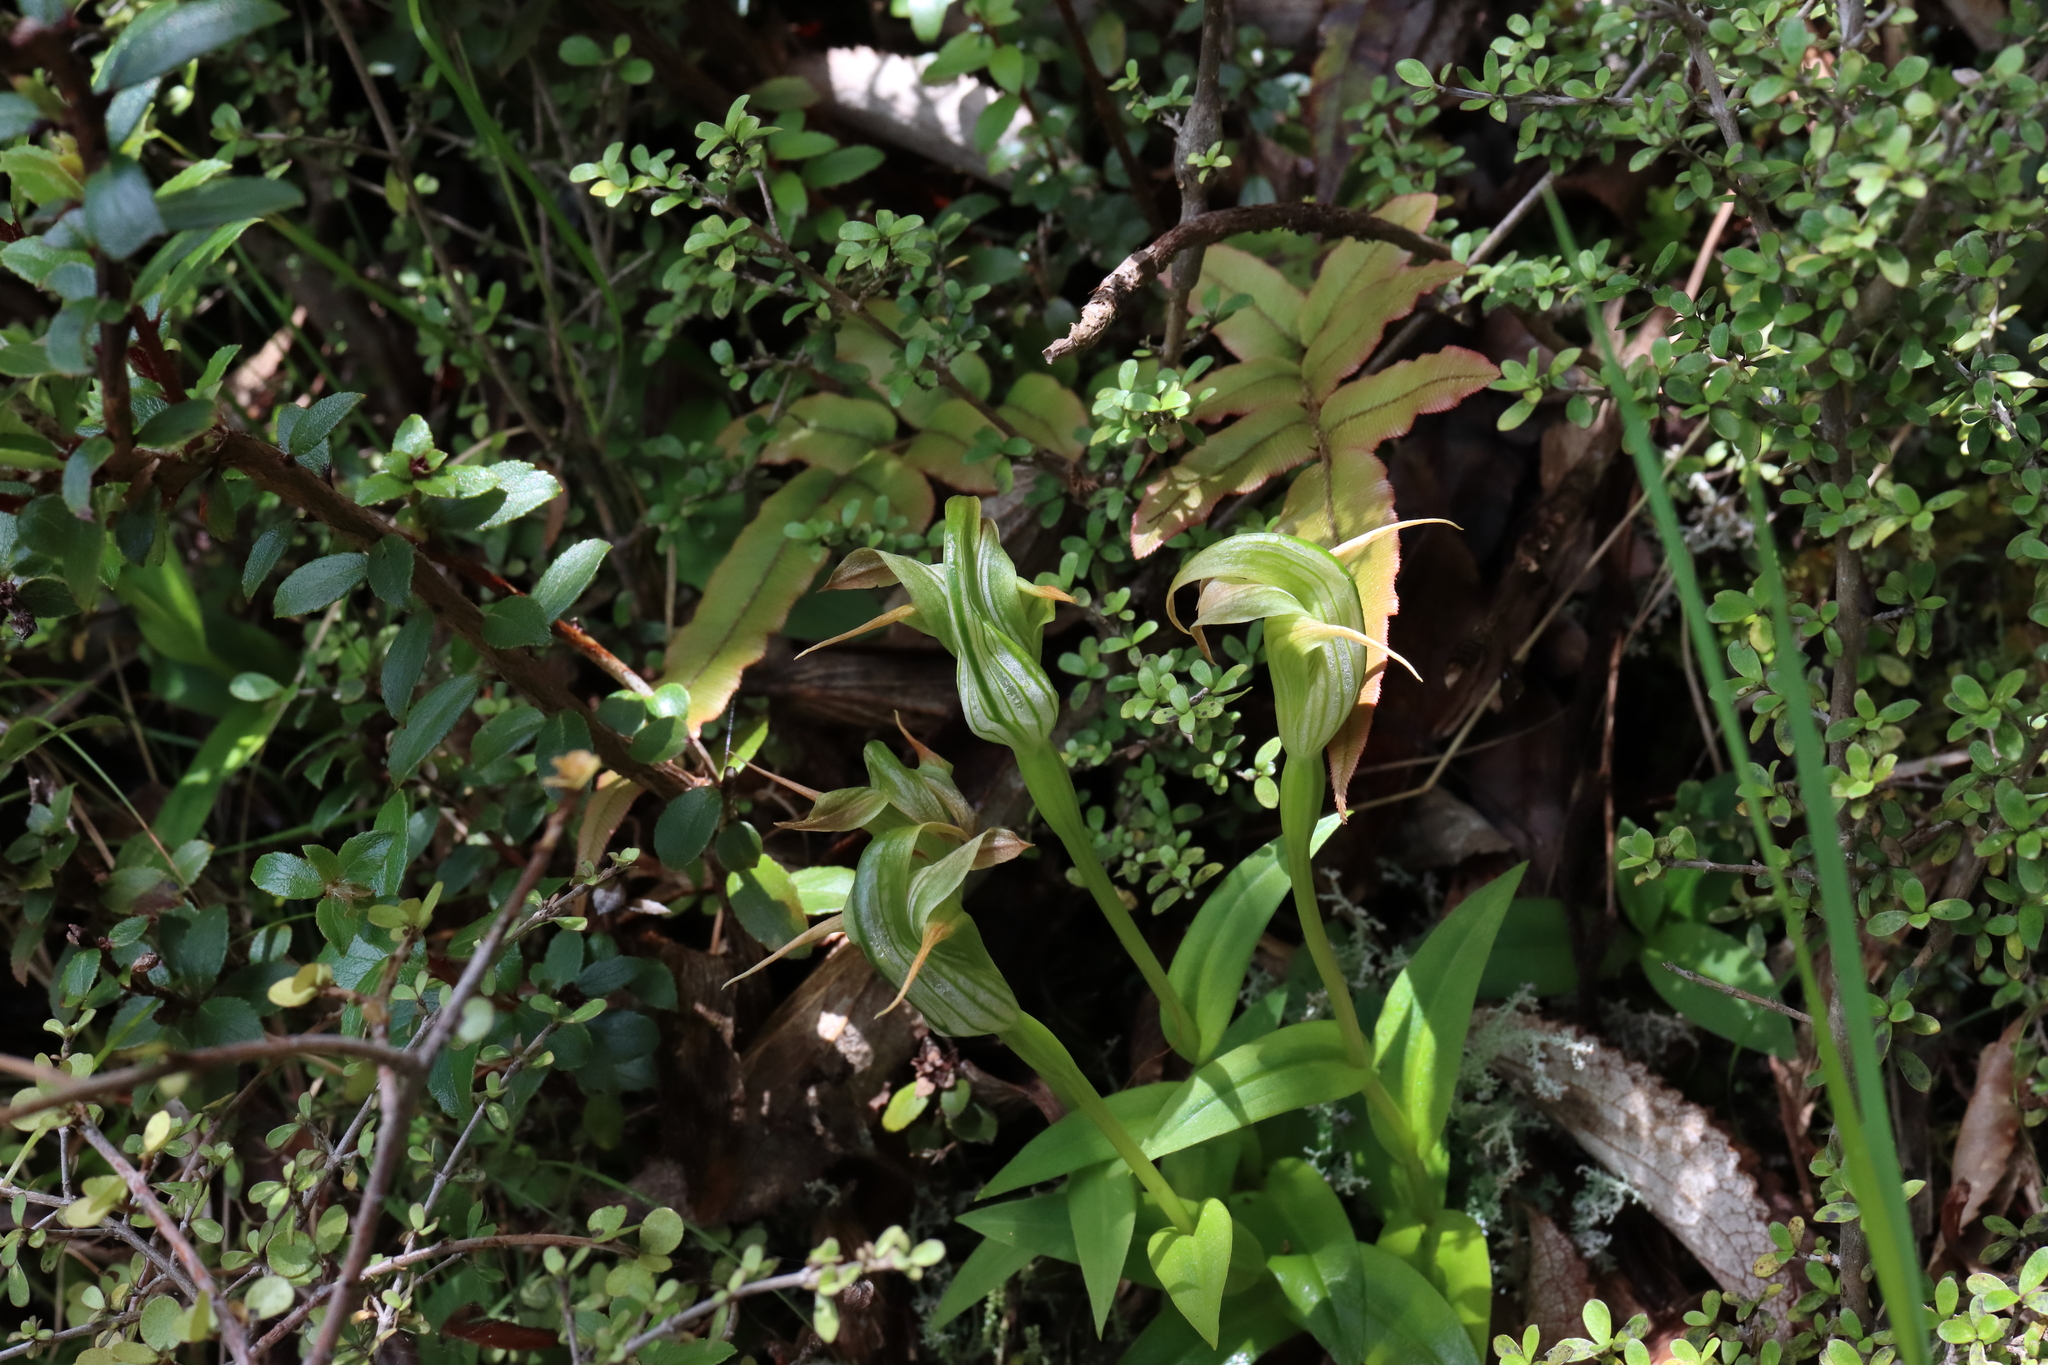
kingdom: Plantae
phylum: Tracheophyta
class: Liliopsida
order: Asparagales
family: Orchidaceae
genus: Pterostylis
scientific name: Pterostylis patens
